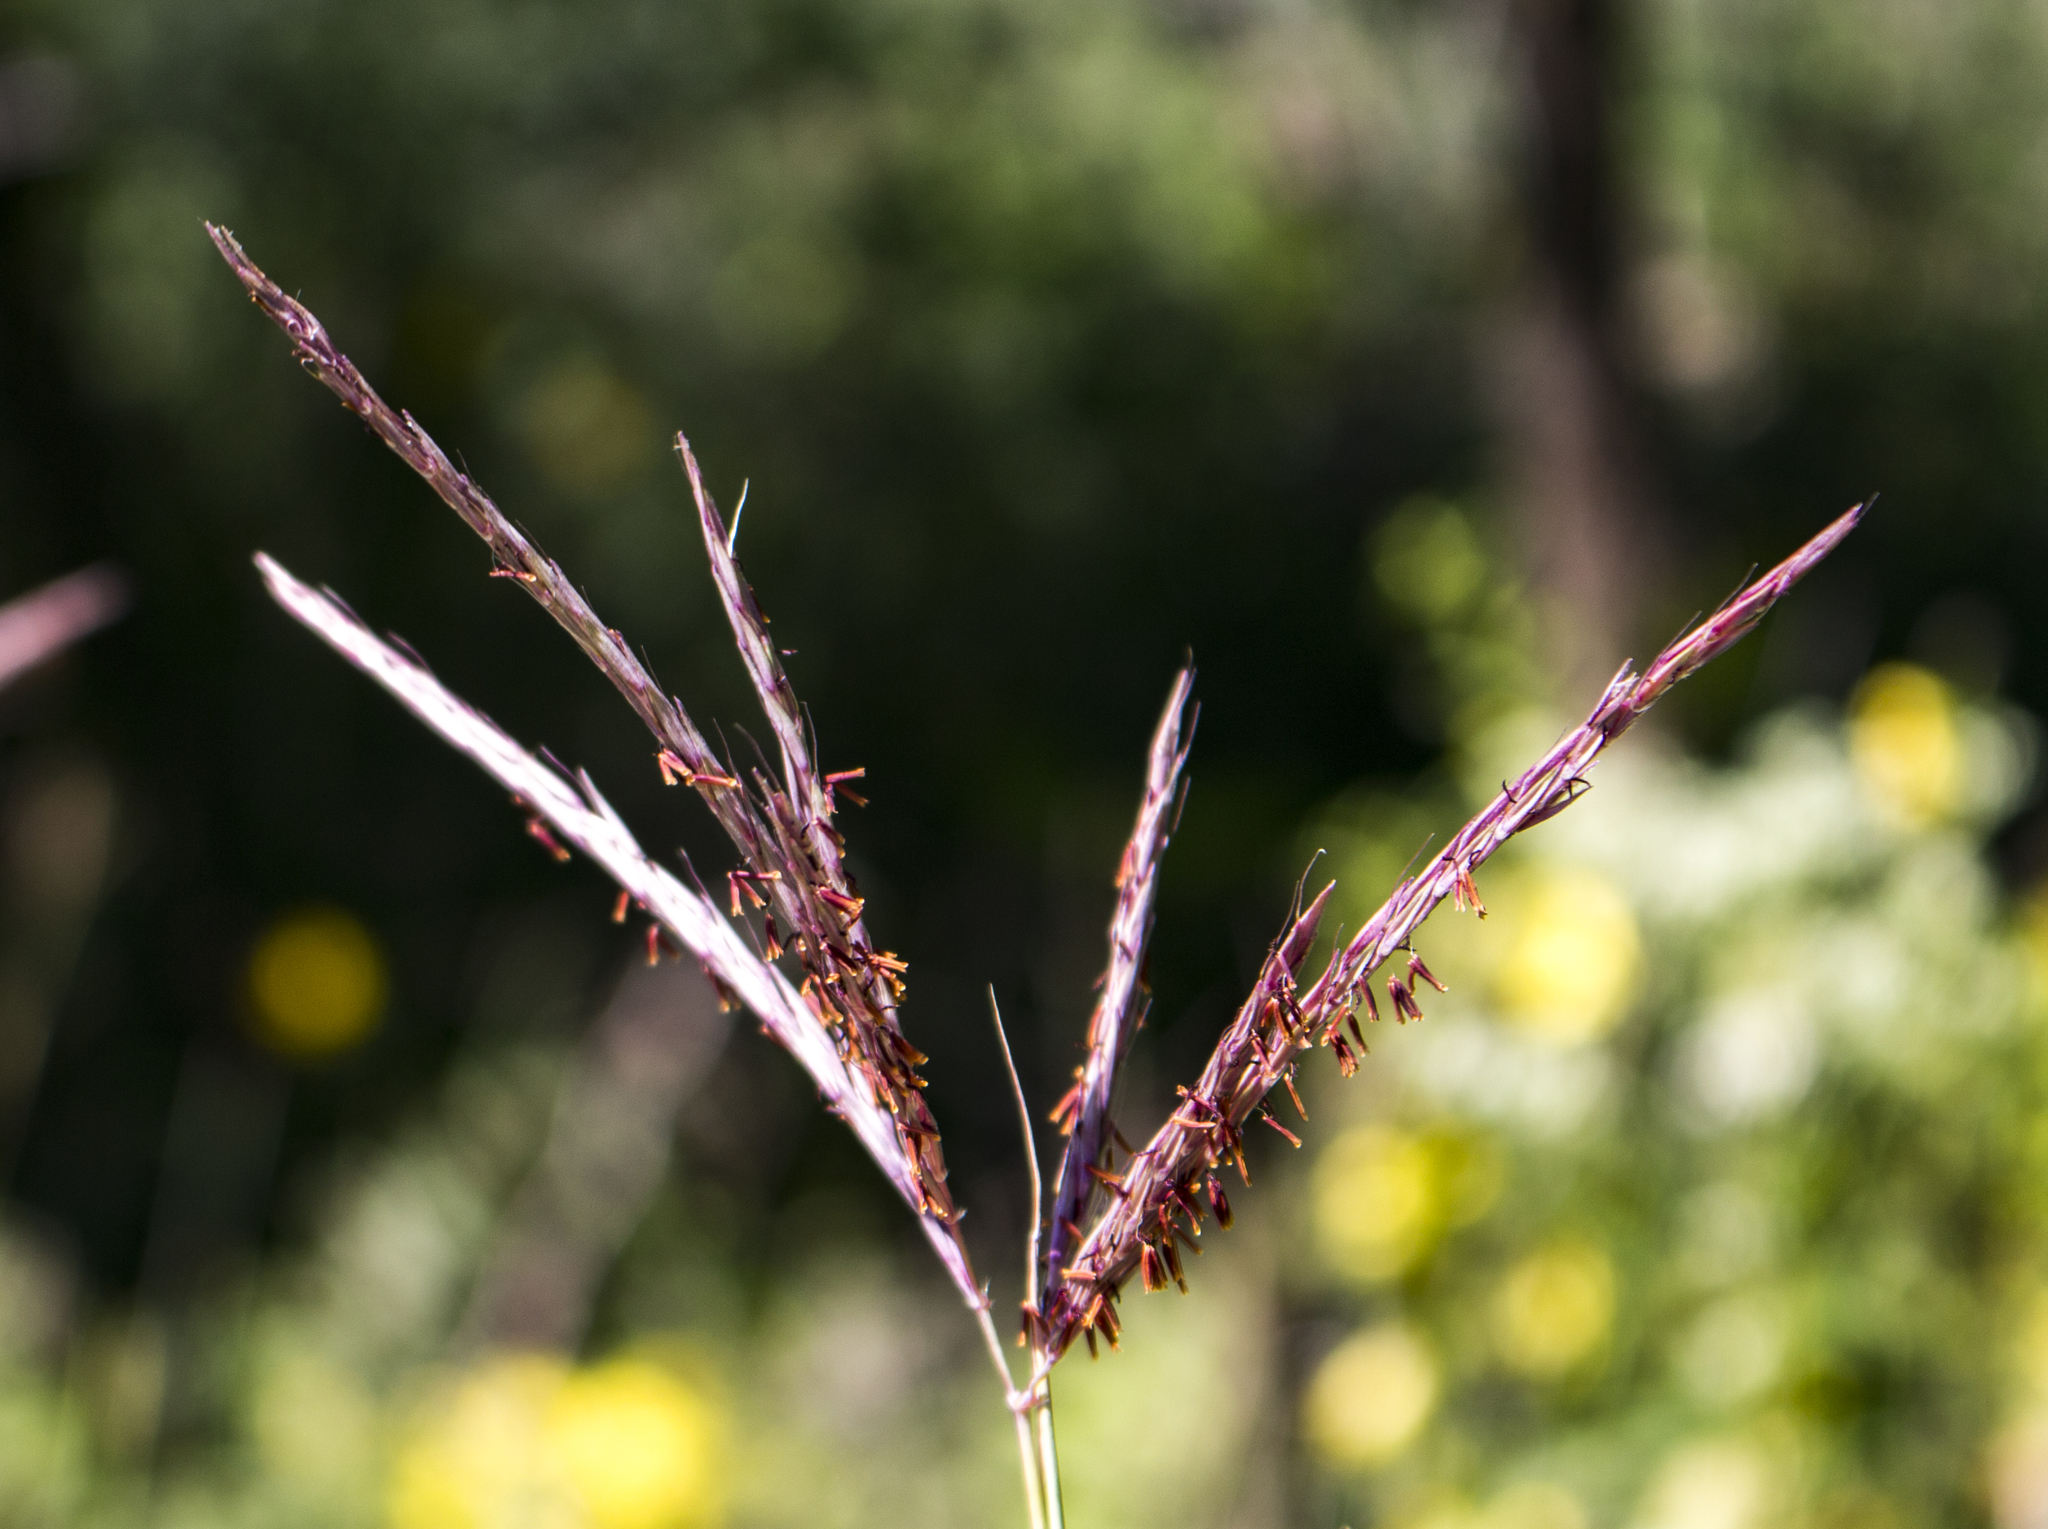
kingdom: Plantae
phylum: Tracheophyta
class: Liliopsida
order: Poales
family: Poaceae
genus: Andropogon
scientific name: Andropogon gerardi
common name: Big bluestem
